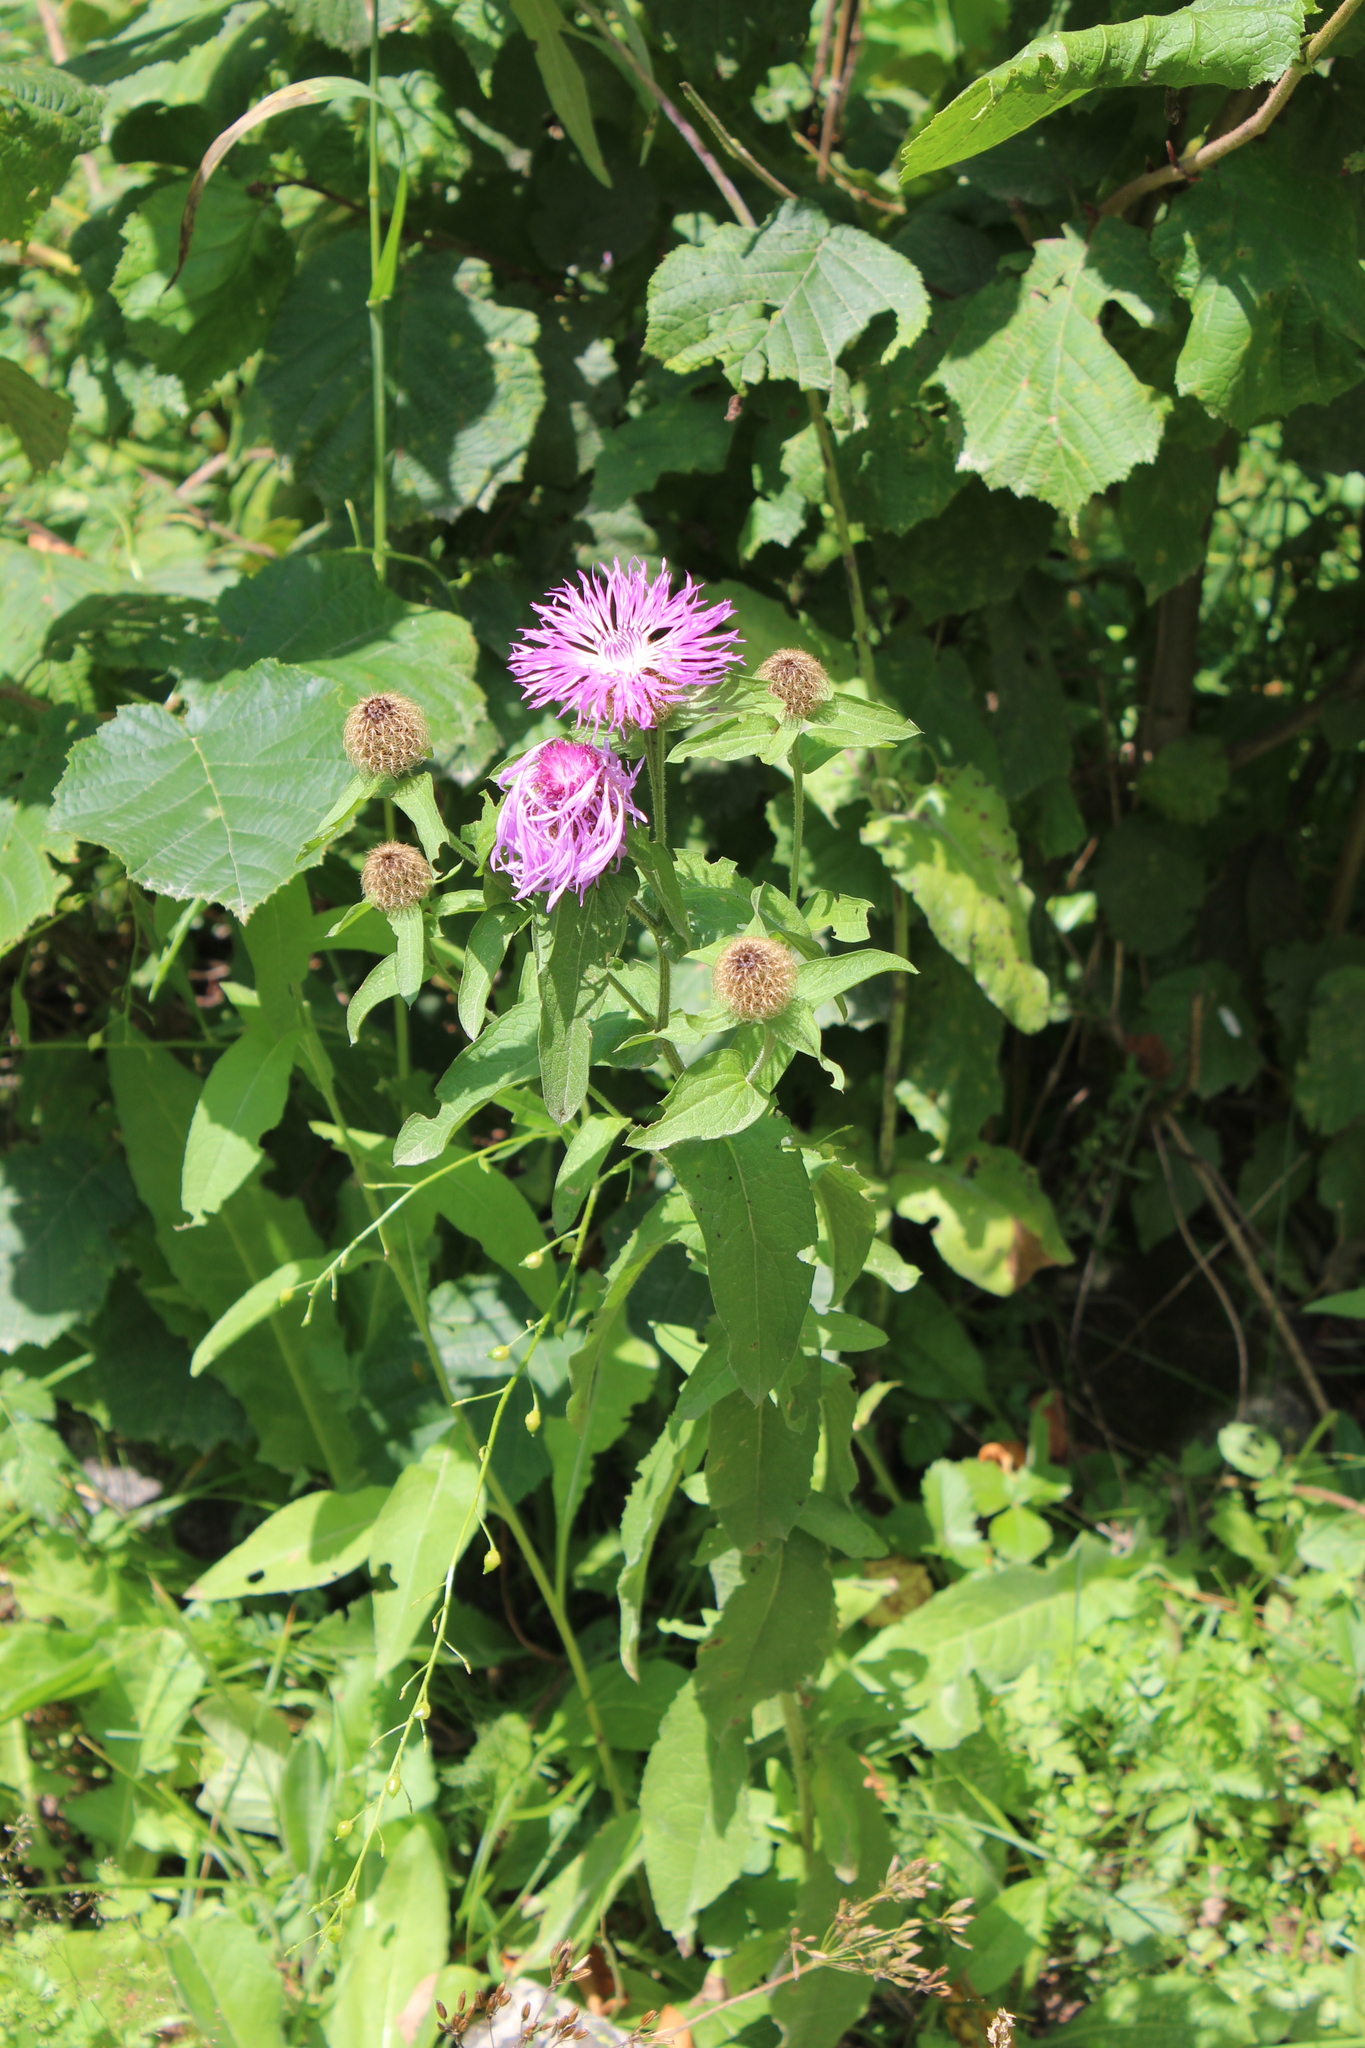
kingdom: Plantae
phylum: Tracheophyta
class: Magnoliopsida
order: Asterales
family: Asteraceae
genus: Centaurea
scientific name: Centaurea phrygia
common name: Wig knapweed
